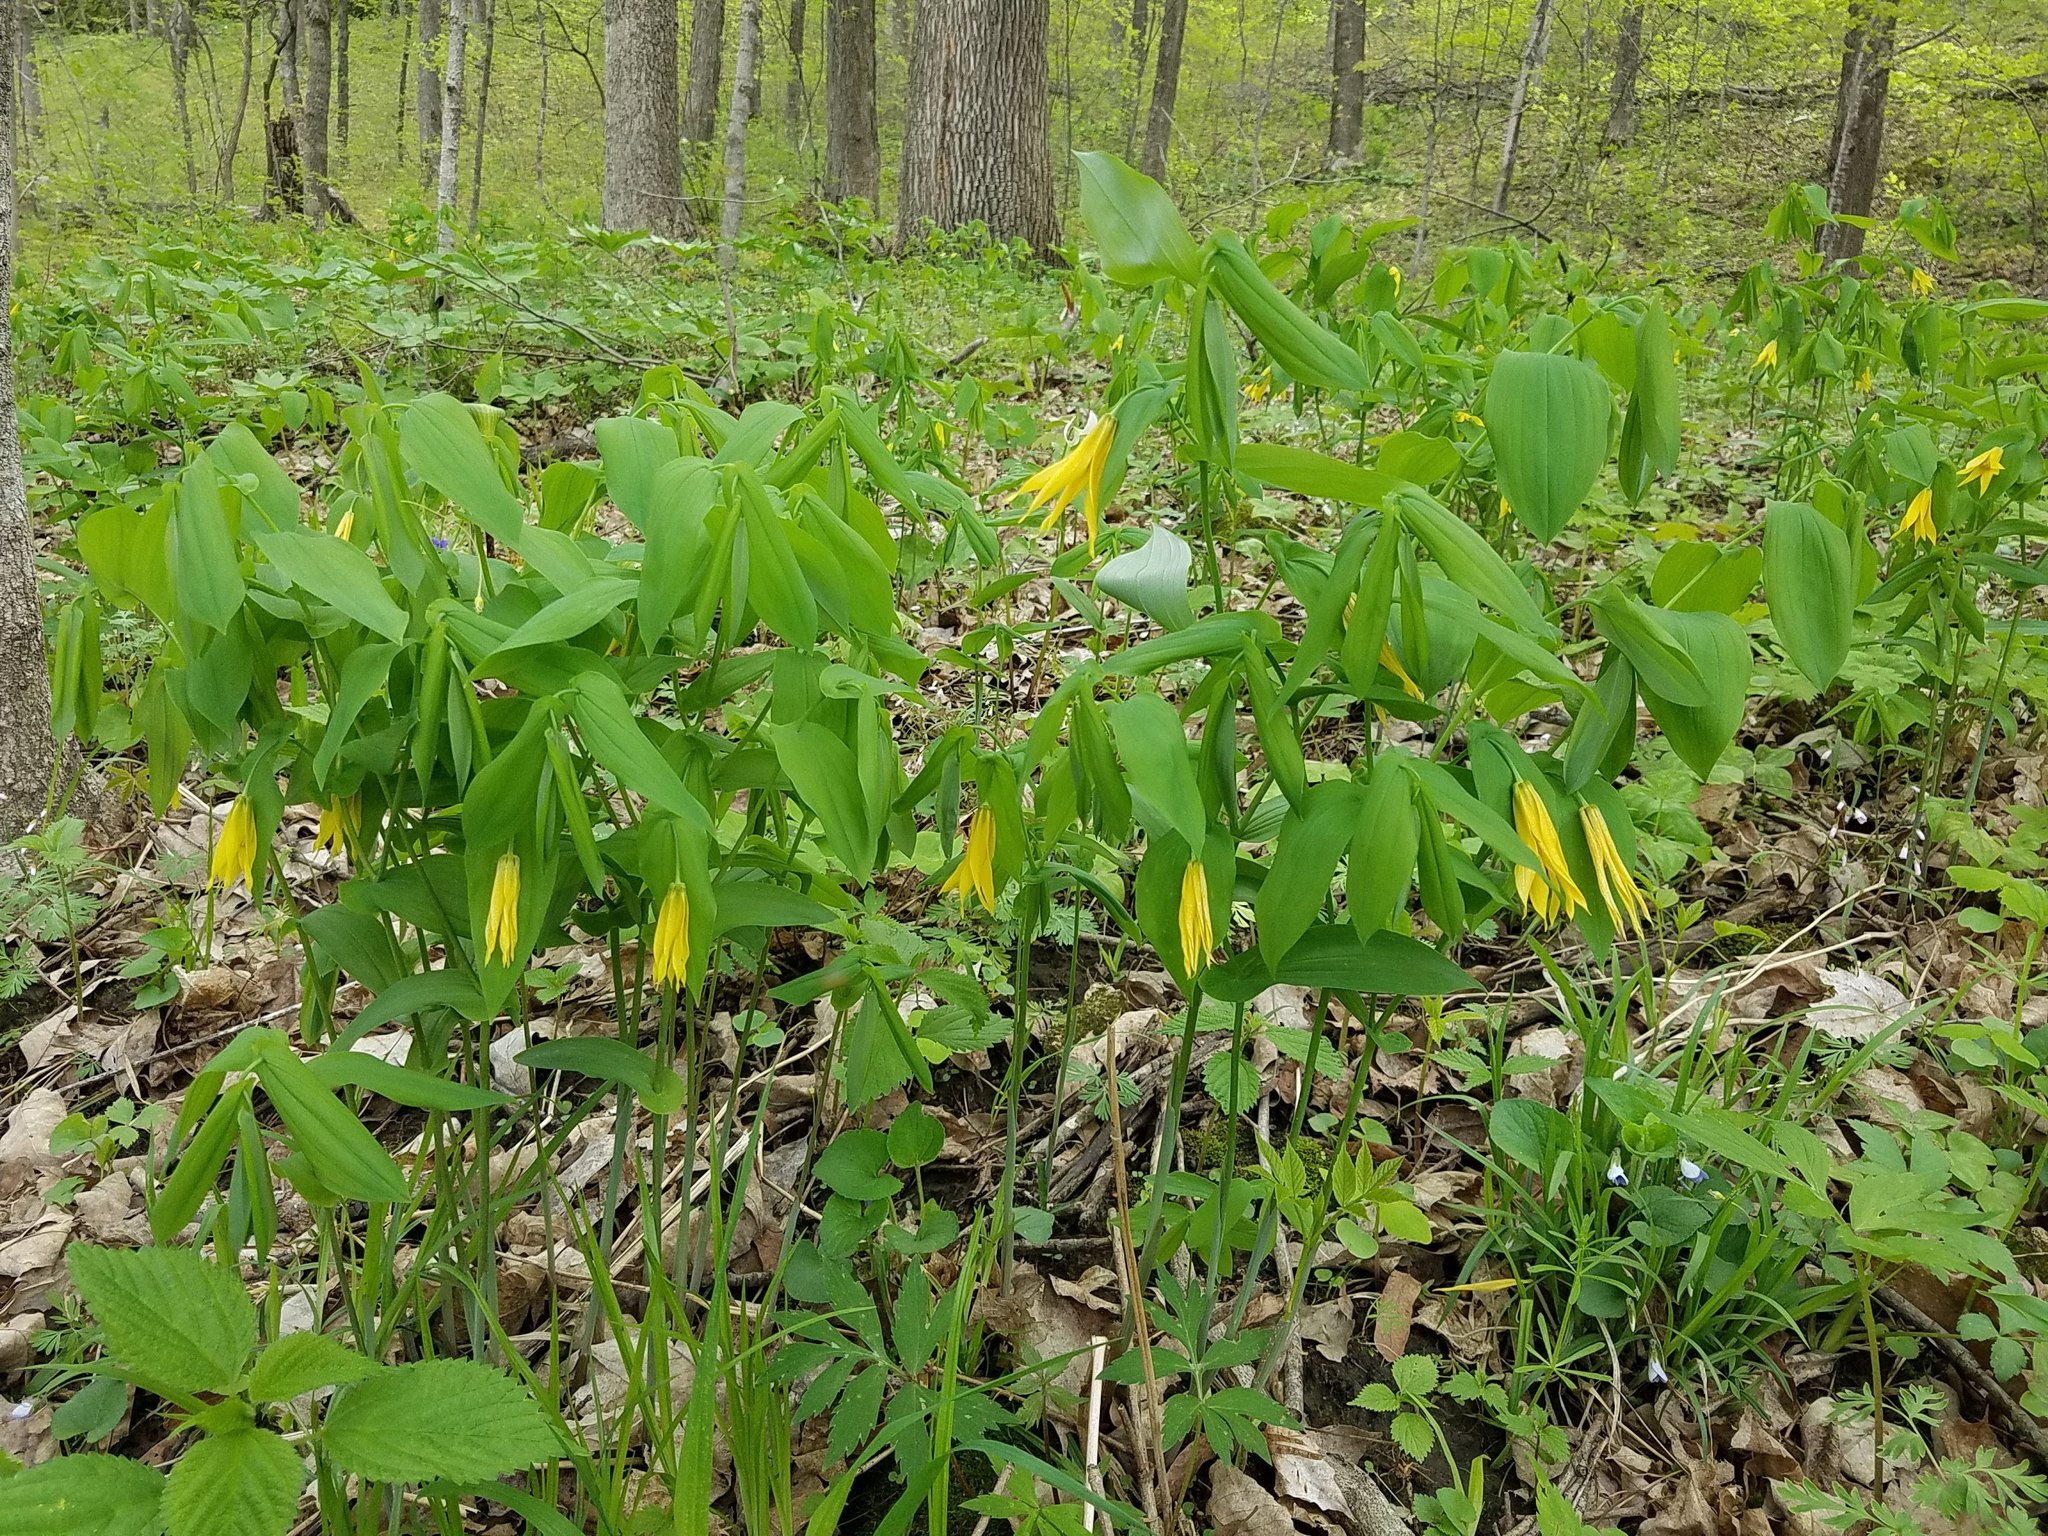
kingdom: Plantae
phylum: Tracheophyta
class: Liliopsida
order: Liliales
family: Colchicaceae
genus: Uvularia
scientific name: Uvularia grandiflora
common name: Bellwort
